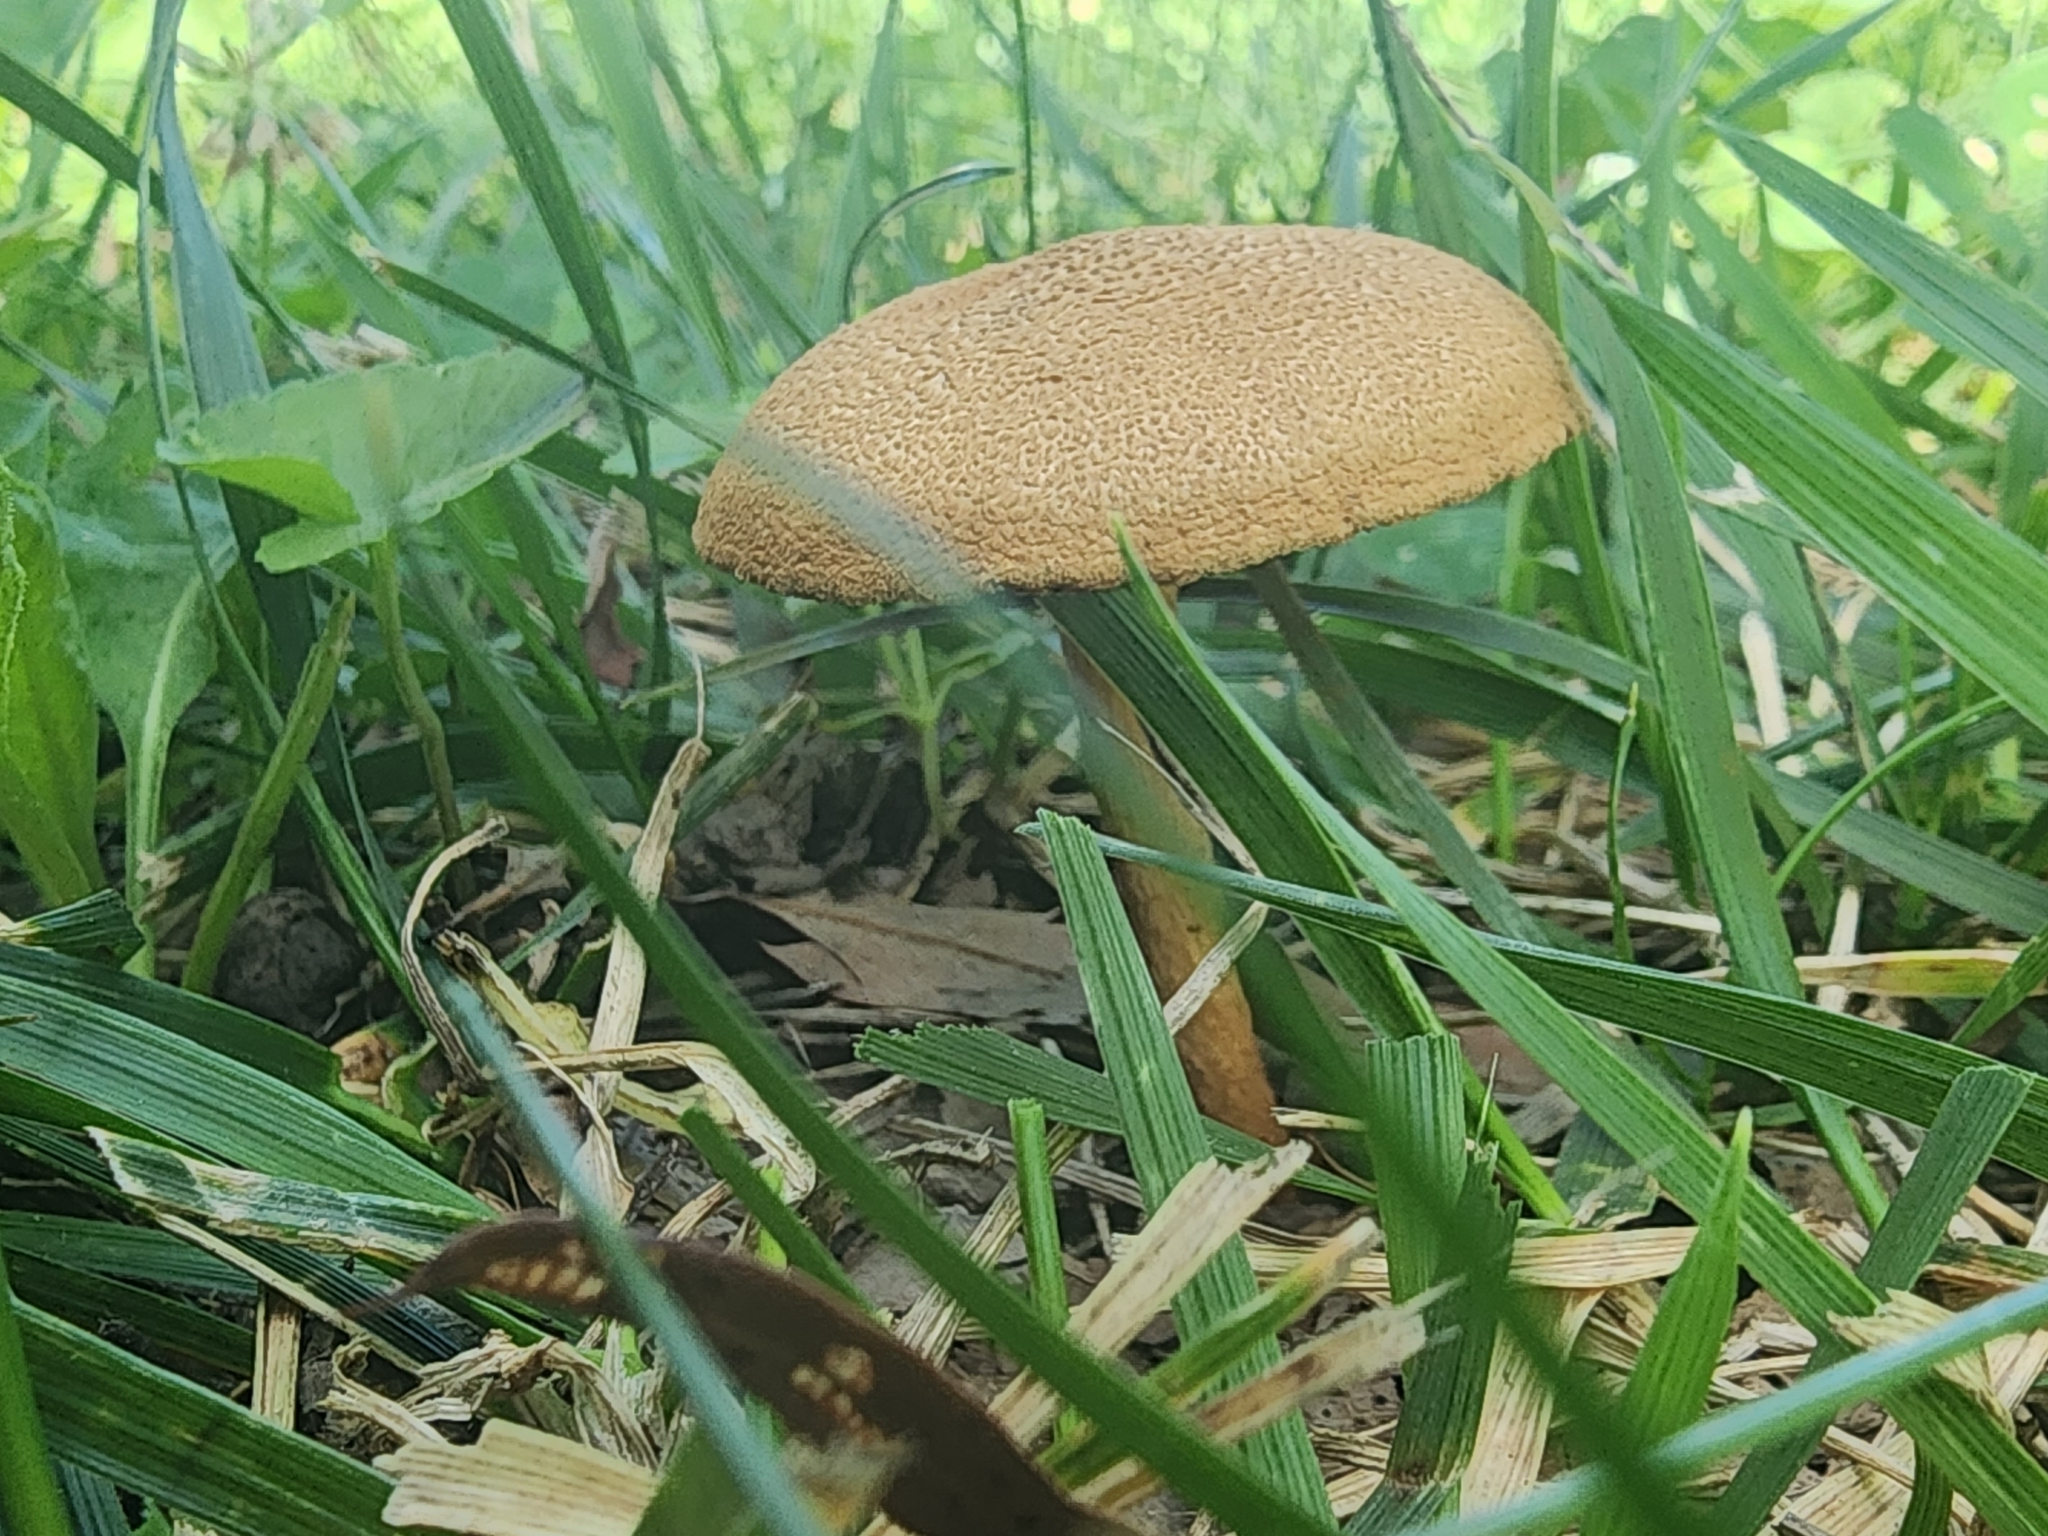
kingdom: Fungi
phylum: Basidiomycota
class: Agaricomycetes
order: Agaricales
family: Inocybaceae
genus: Mallocybe
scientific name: Mallocybe unicolor
